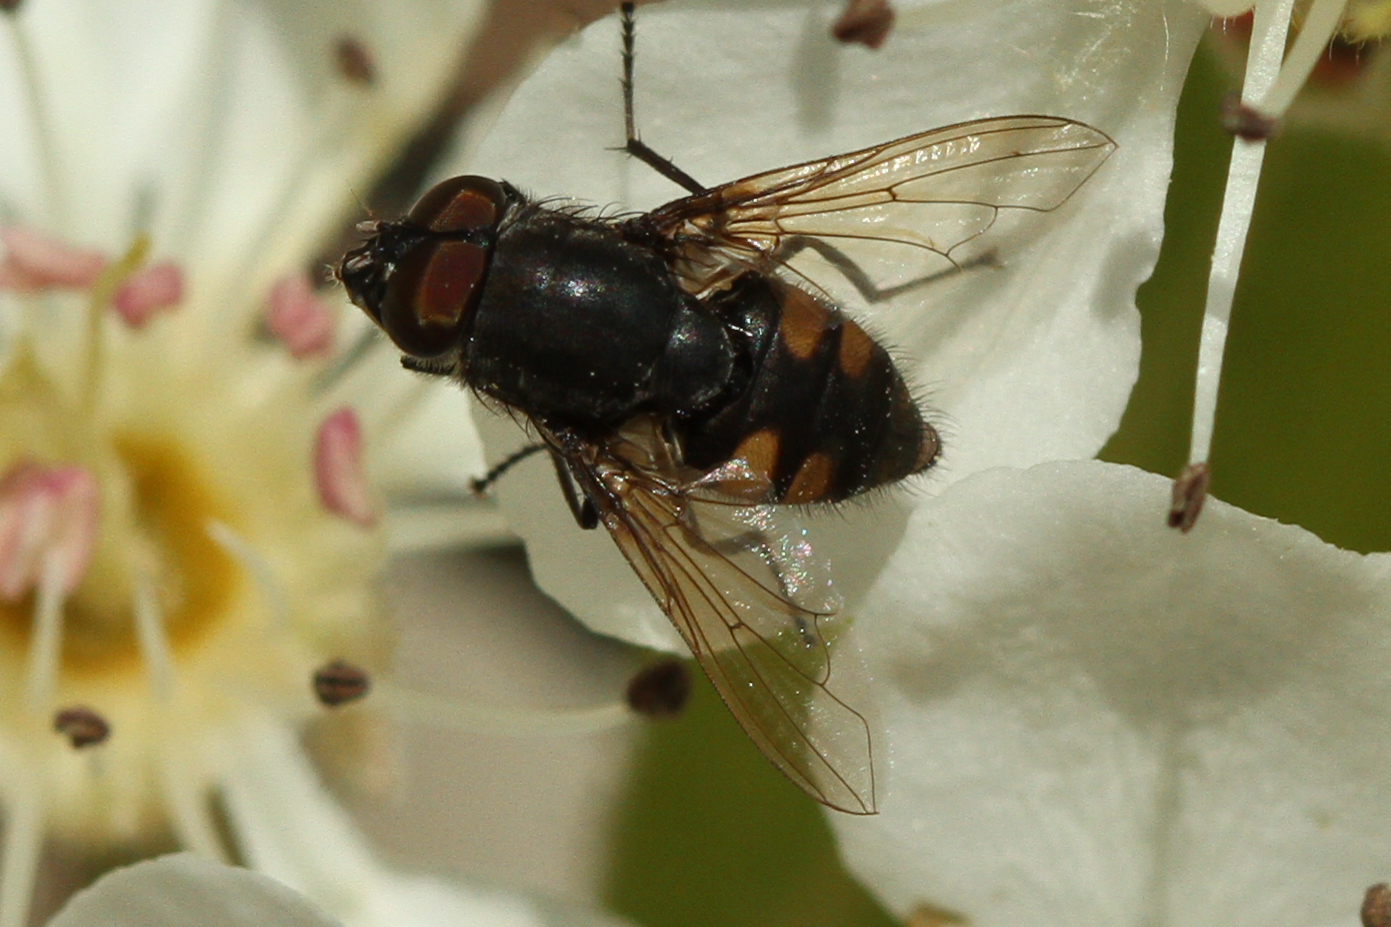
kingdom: Animalia
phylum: Arthropoda
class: Insecta
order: Diptera
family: Calliphoridae
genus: Stomorhina
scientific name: Stomorhina lunata
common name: Locust blowfly
